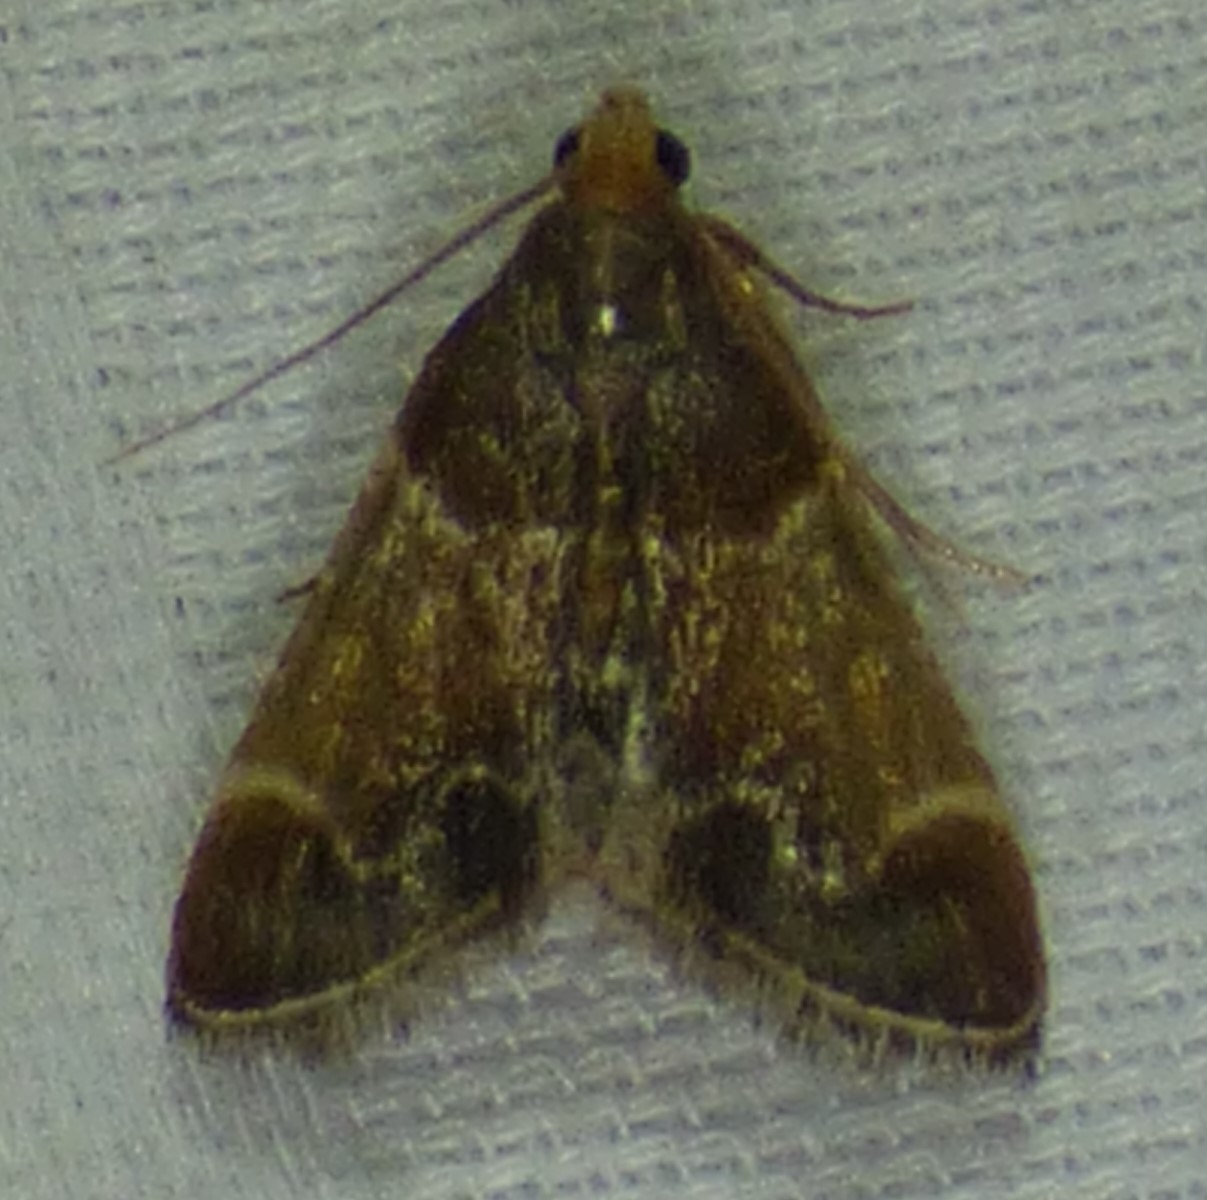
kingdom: Animalia
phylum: Arthropoda
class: Insecta
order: Lepidoptera
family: Pyralidae
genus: Pyralis
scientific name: Pyralis farinalis
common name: Meal moth
